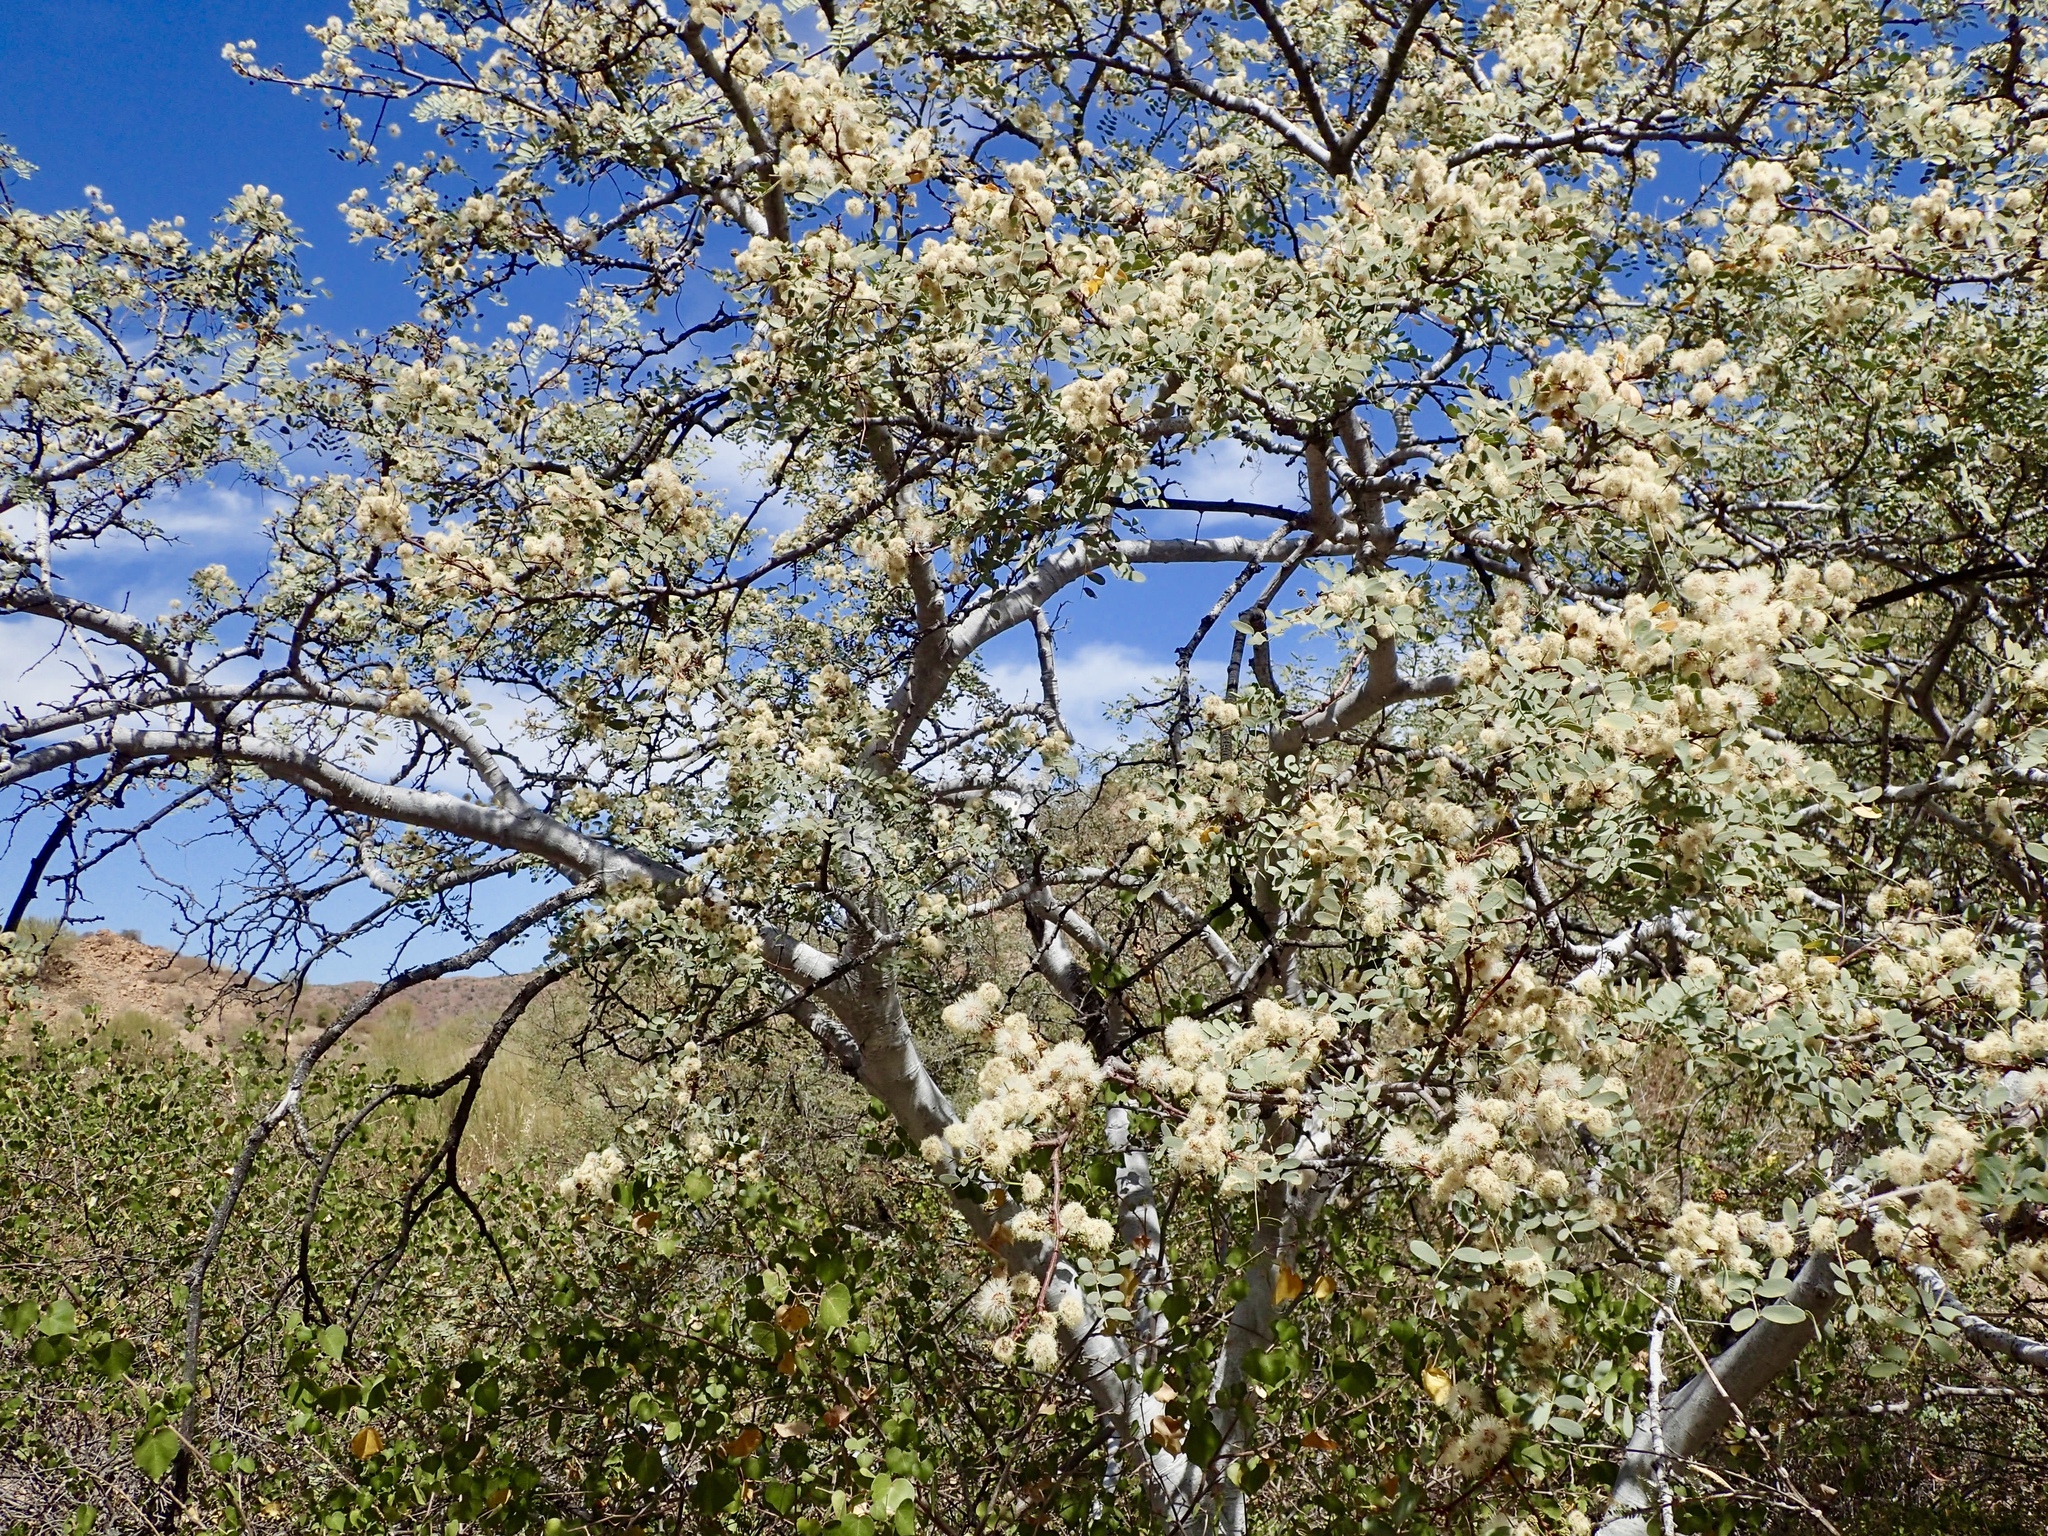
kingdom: Plantae
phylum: Tracheophyta
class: Magnoliopsida
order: Fabales
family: Fabaceae
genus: Lysiloma
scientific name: Lysiloma candidum
